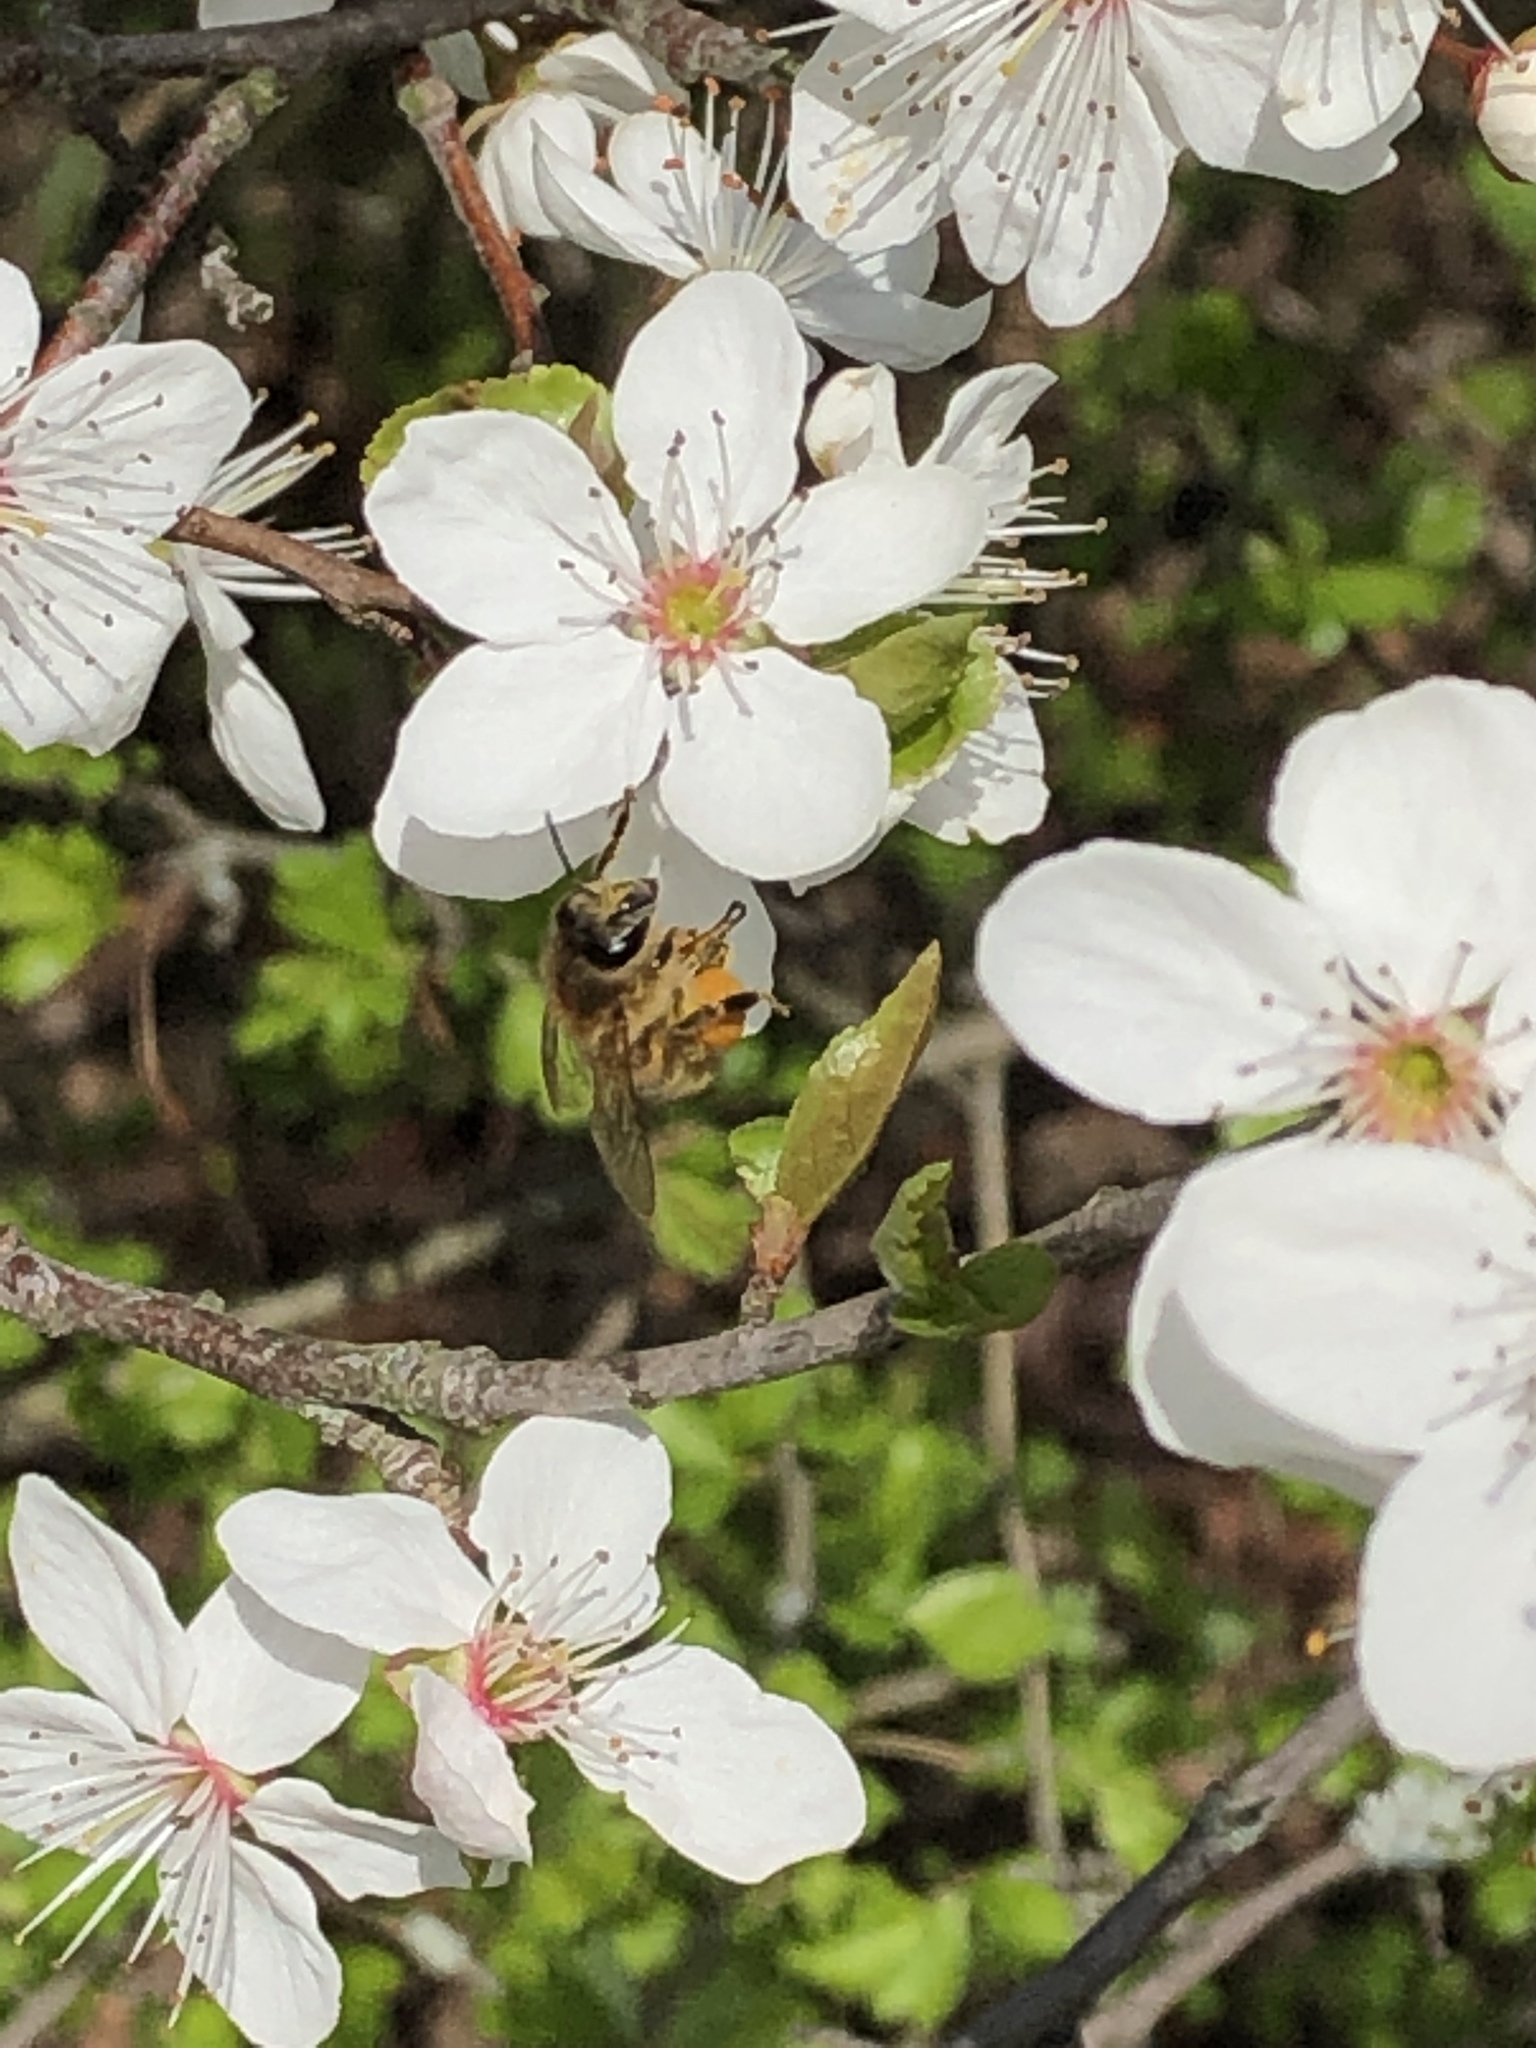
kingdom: Animalia
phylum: Arthropoda
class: Insecta
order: Hymenoptera
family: Apidae
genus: Apis
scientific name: Apis mellifera
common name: Honey bee
